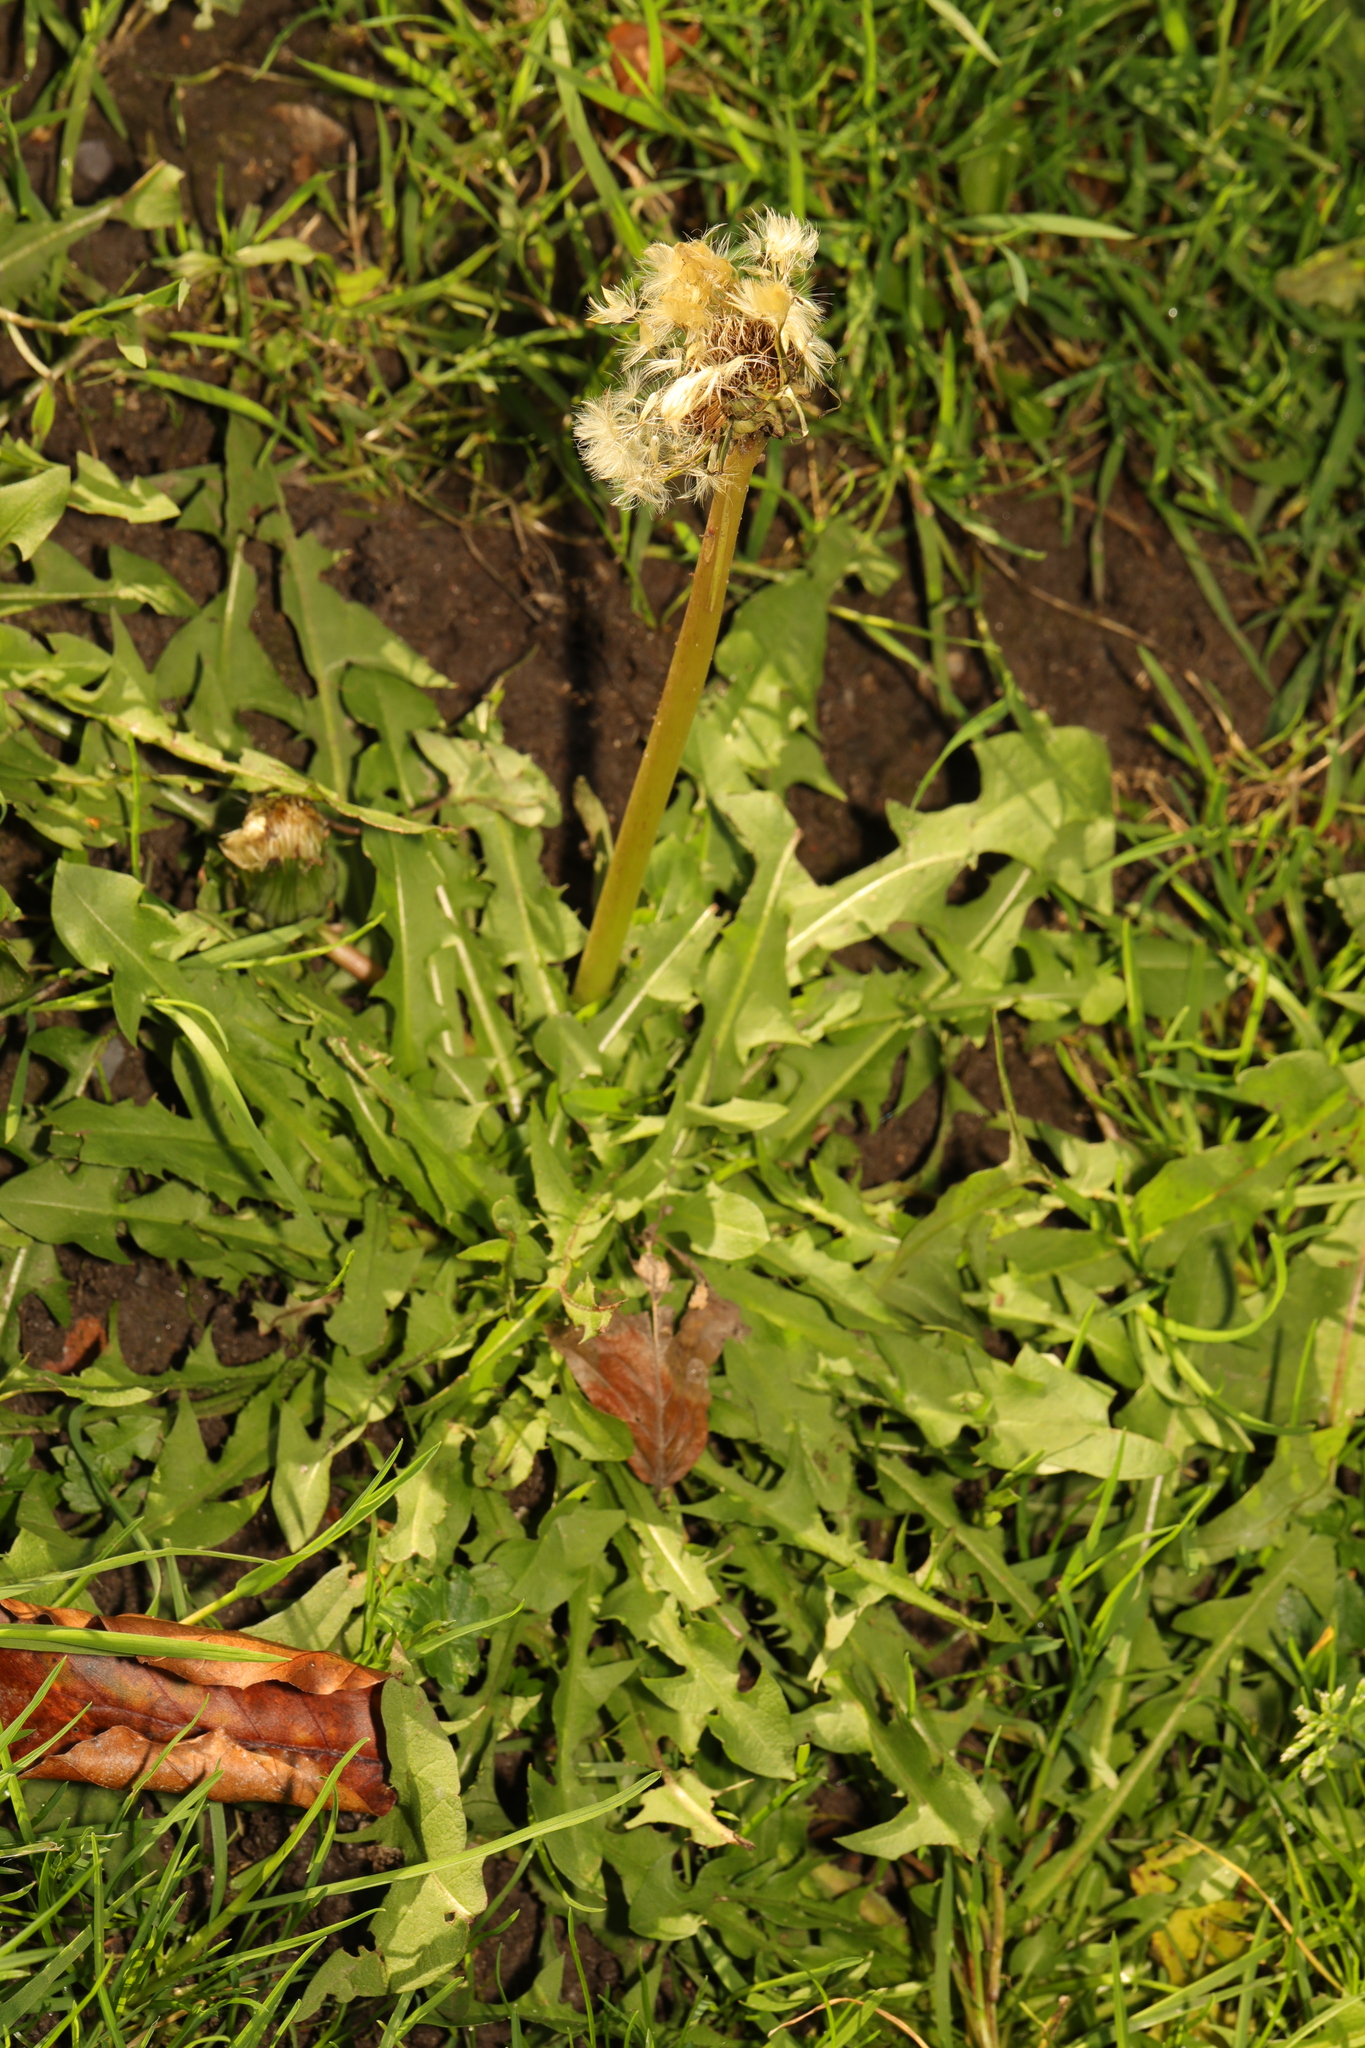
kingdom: Plantae
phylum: Tracheophyta
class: Magnoliopsida
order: Asterales
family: Asteraceae
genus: Taraxacum
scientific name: Taraxacum officinale
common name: Common dandelion
